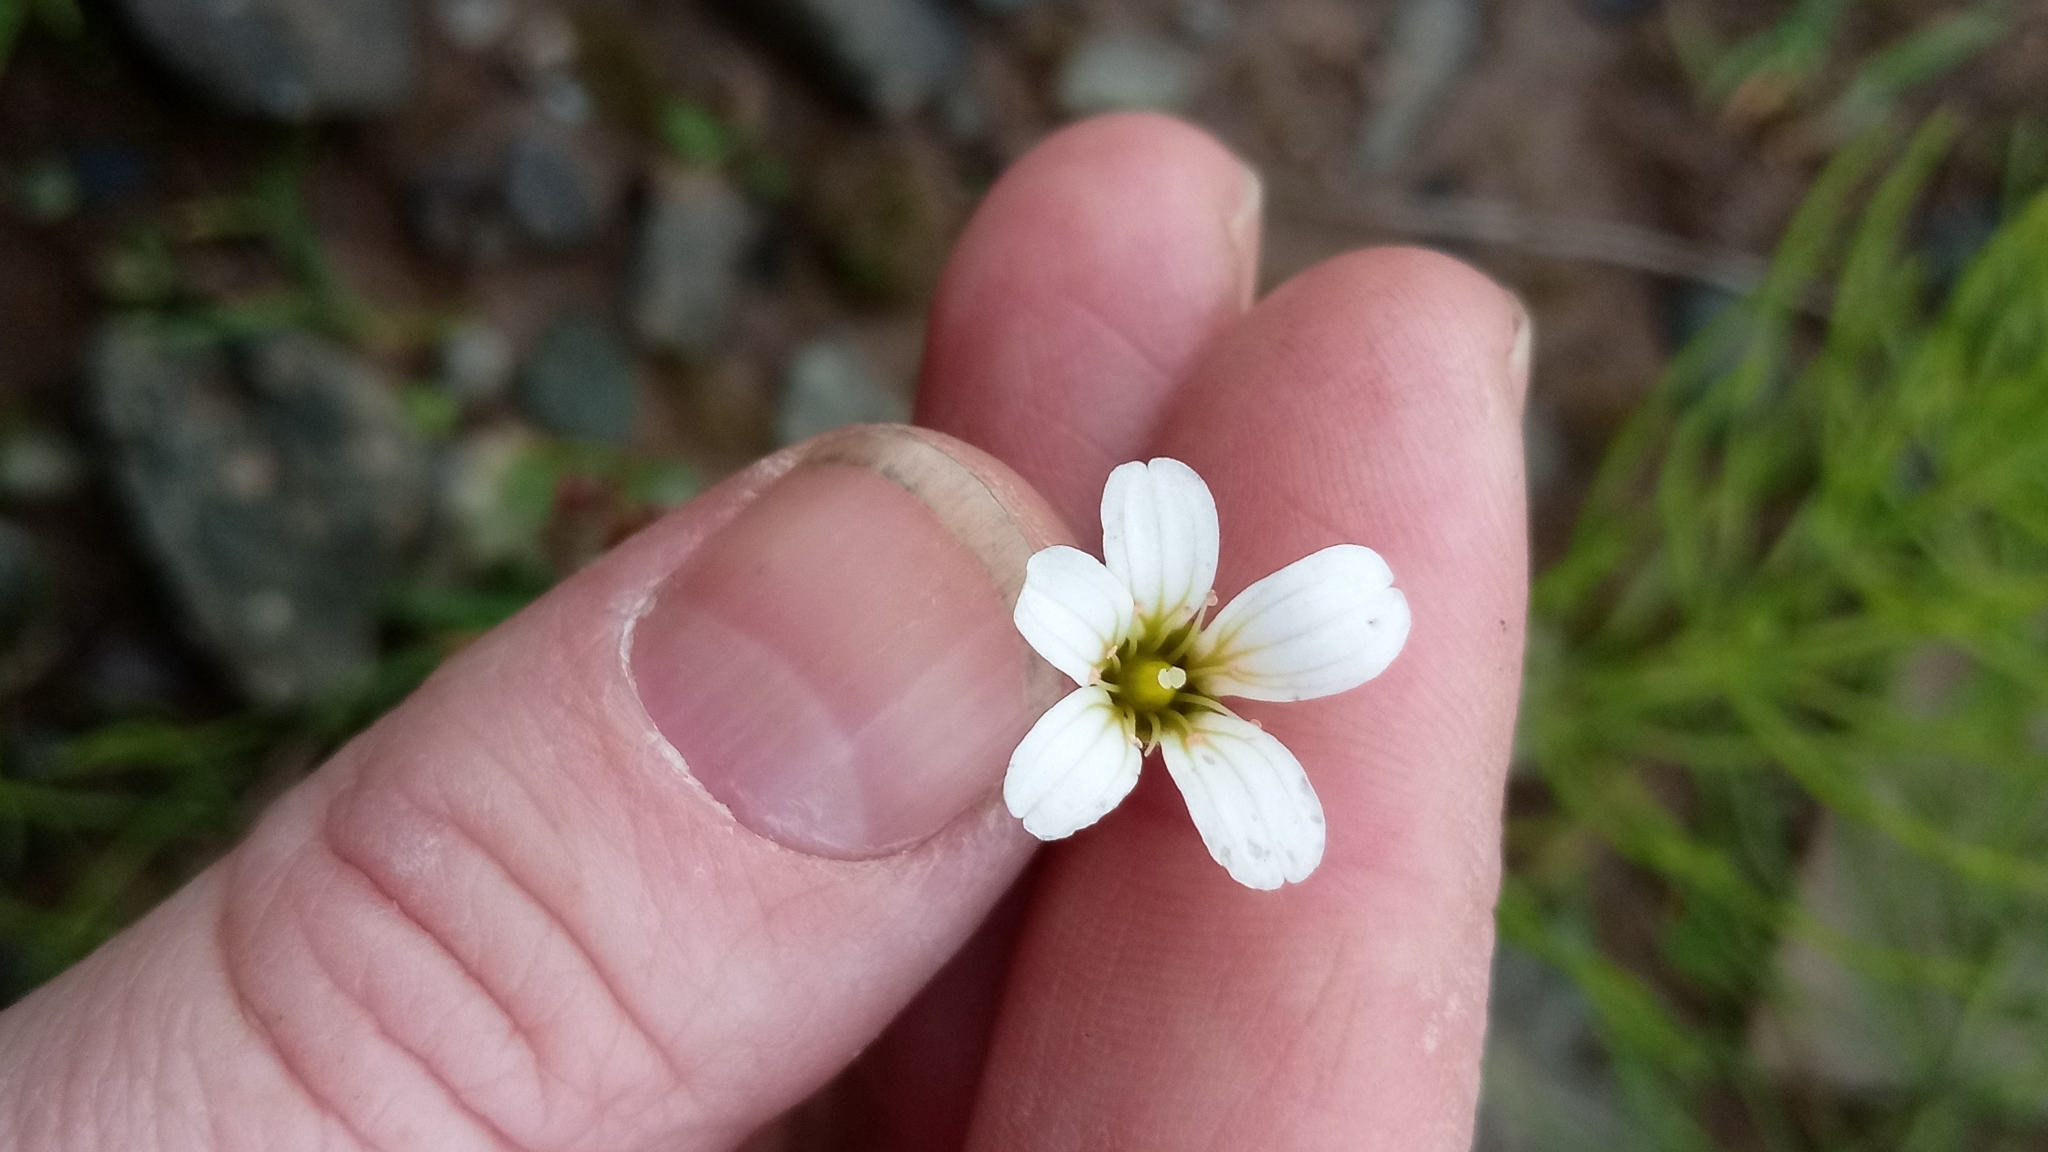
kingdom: Plantae
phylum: Tracheophyta
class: Magnoliopsida
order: Saxifragales
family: Saxifragaceae
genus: Saxifraga
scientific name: Saxifraga cernua
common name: Drooping saxifrage
